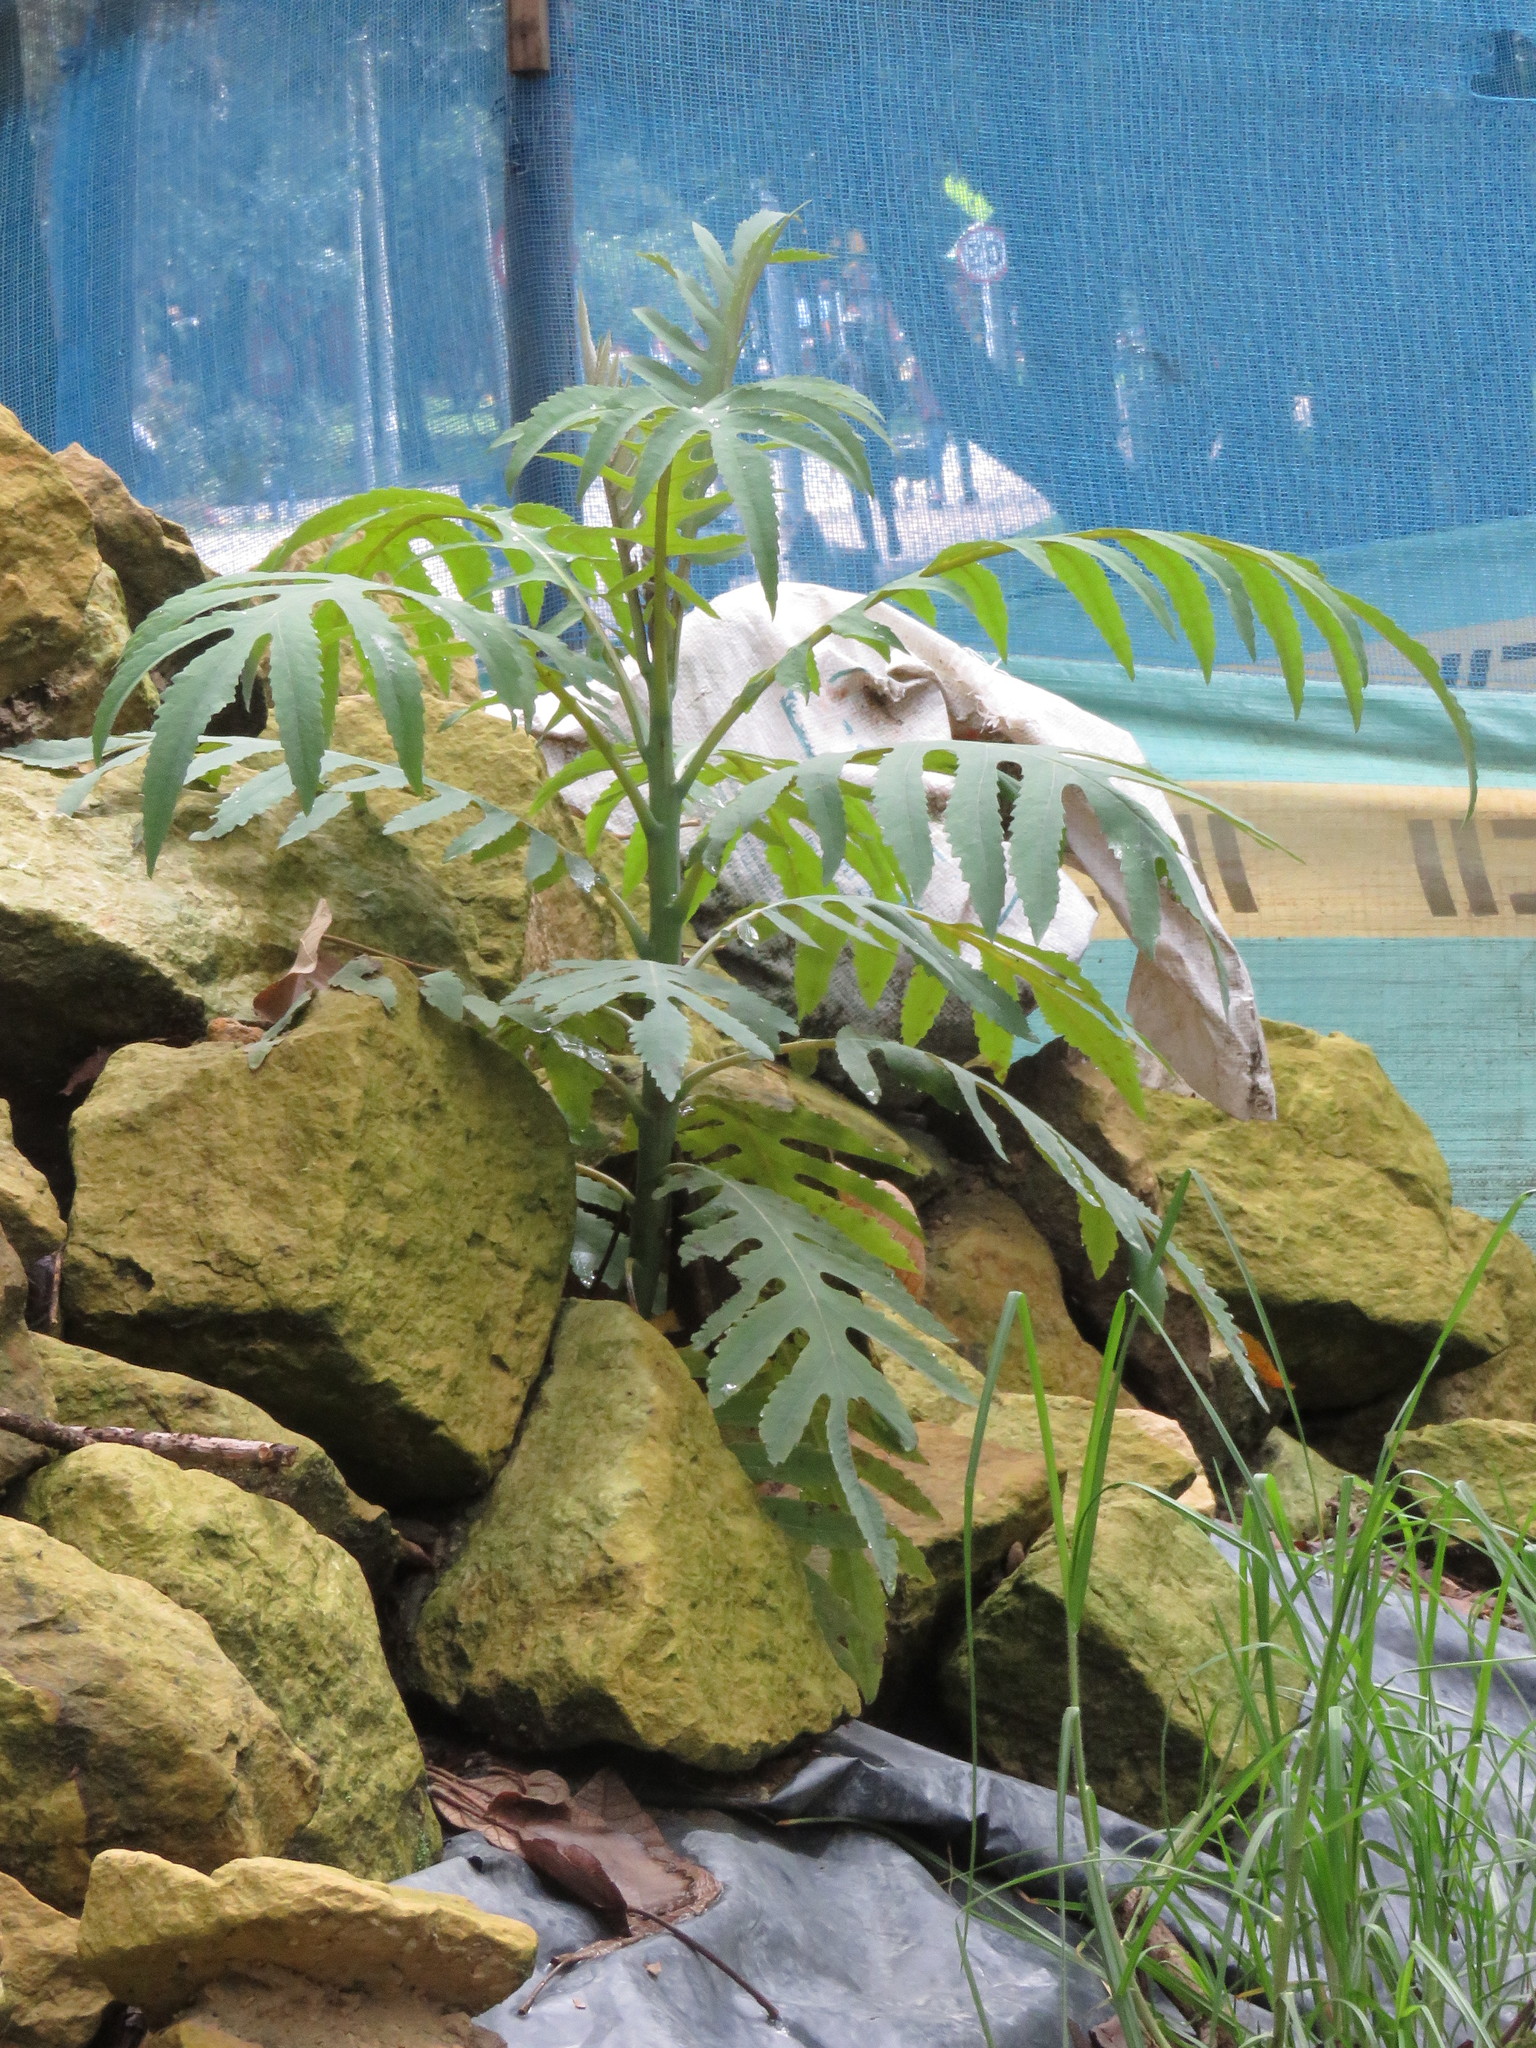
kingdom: Plantae
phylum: Tracheophyta
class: Magnoliopsida
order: Ranunculales
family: Papaveraceae
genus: Bocconia
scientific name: Bocconia frutescens
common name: Tree poppy
